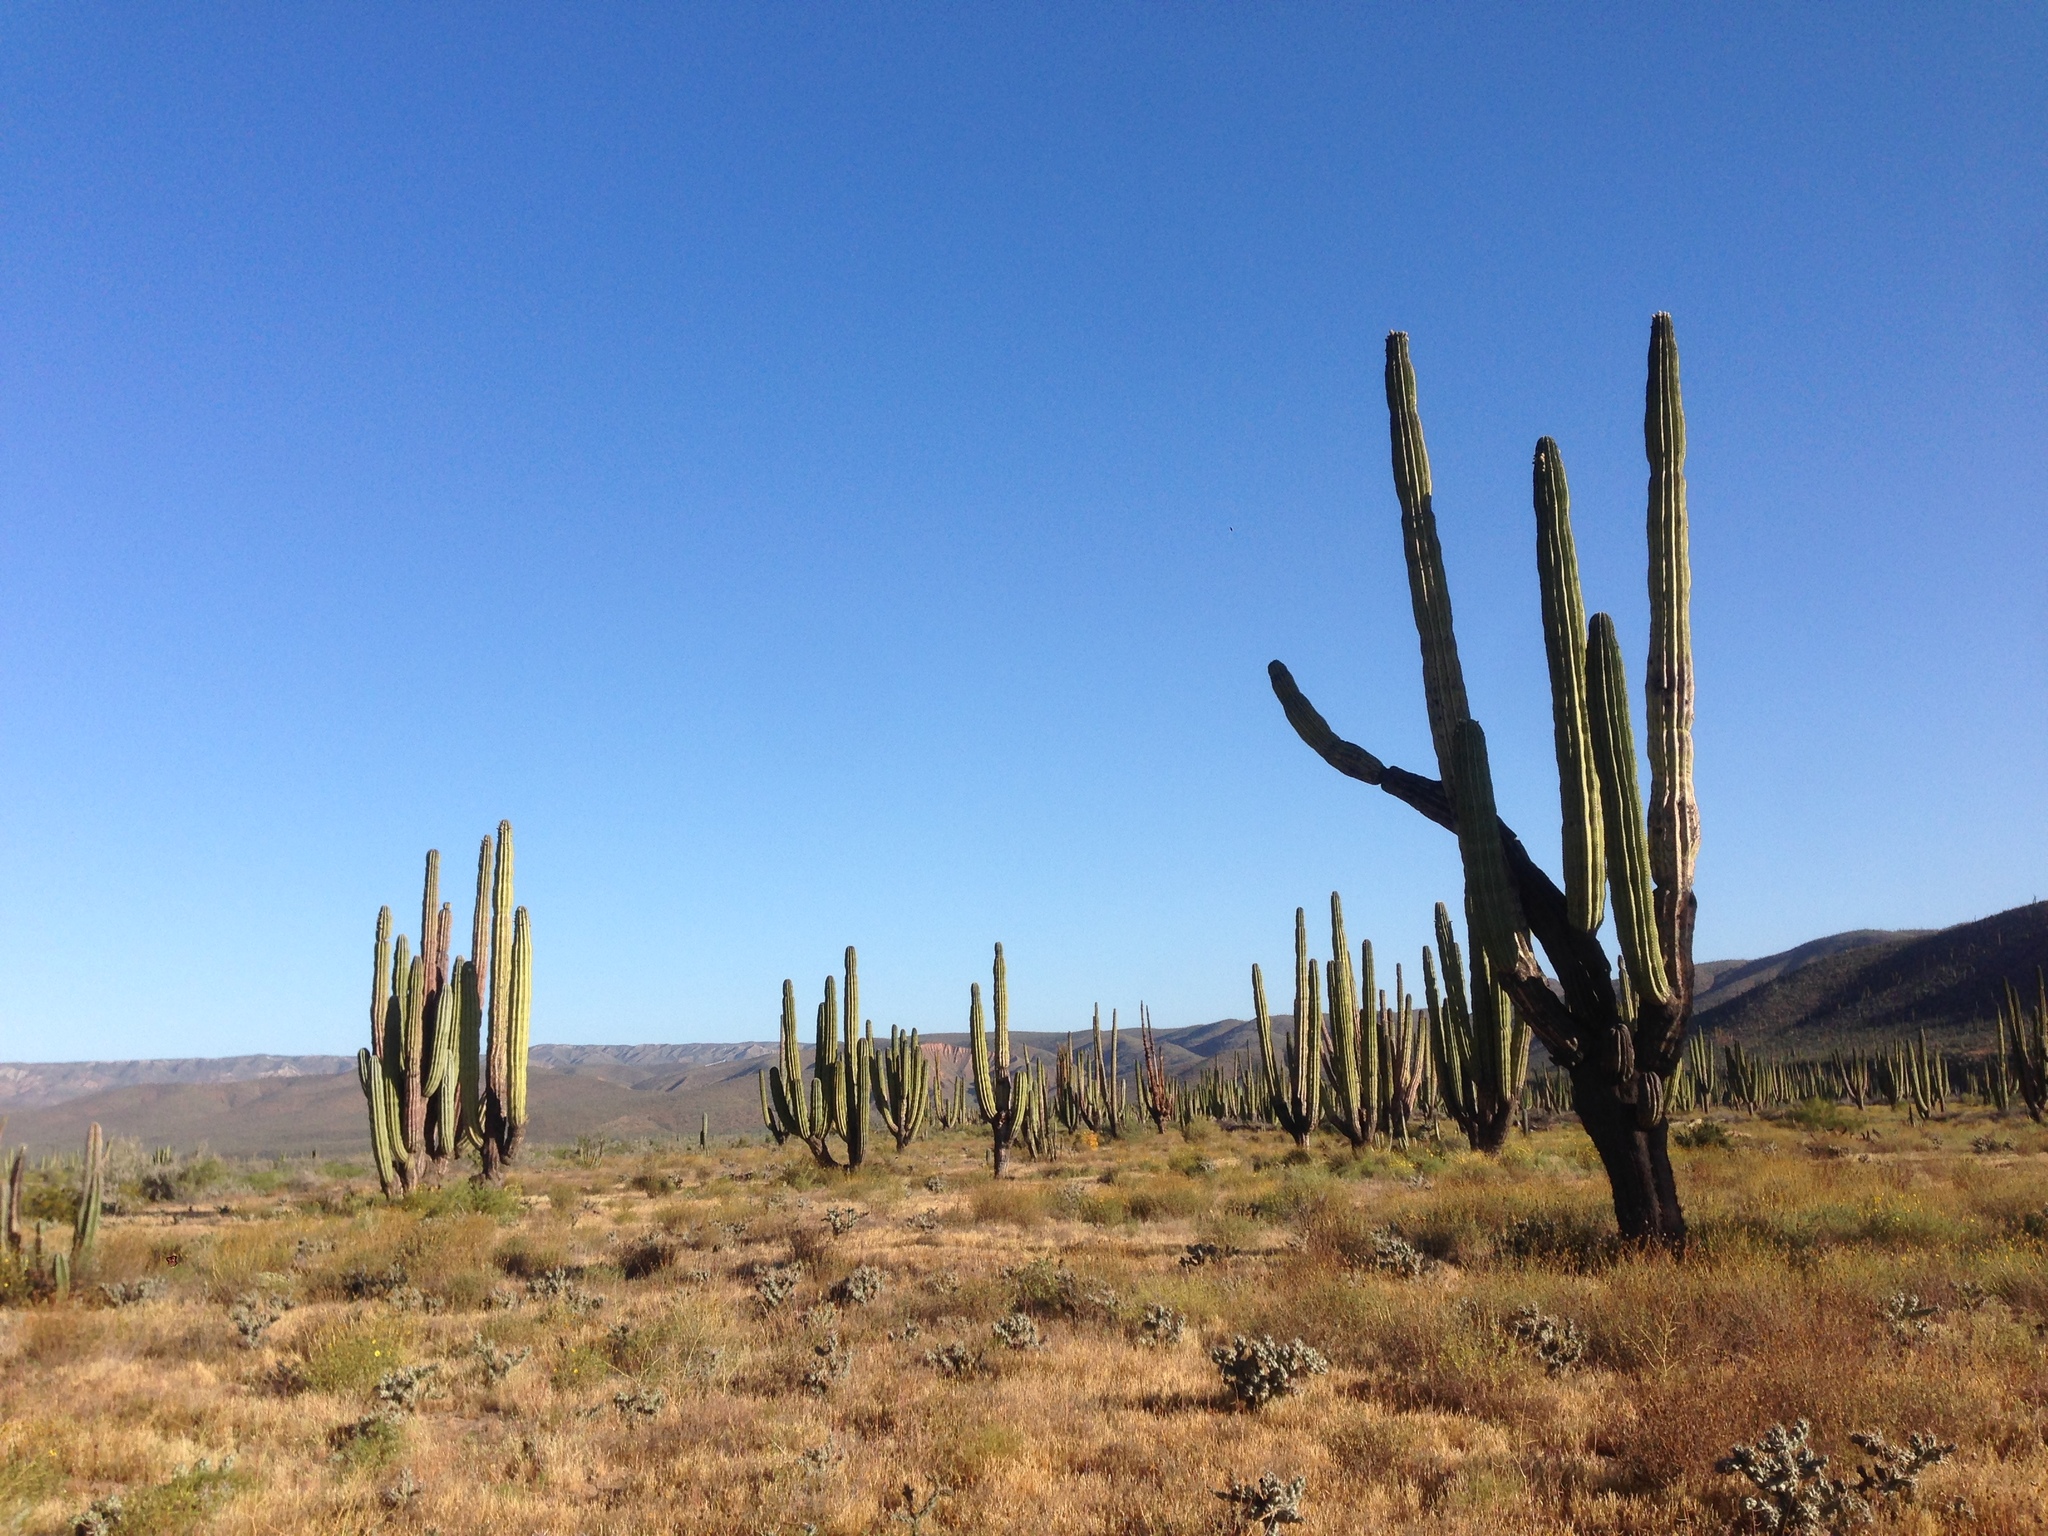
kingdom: Plantae
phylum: Tracheophyta
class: Magnoliopsida
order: Caryophyllales
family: Cactaceae
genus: Pachycereus
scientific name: Pachycereus pringlei
